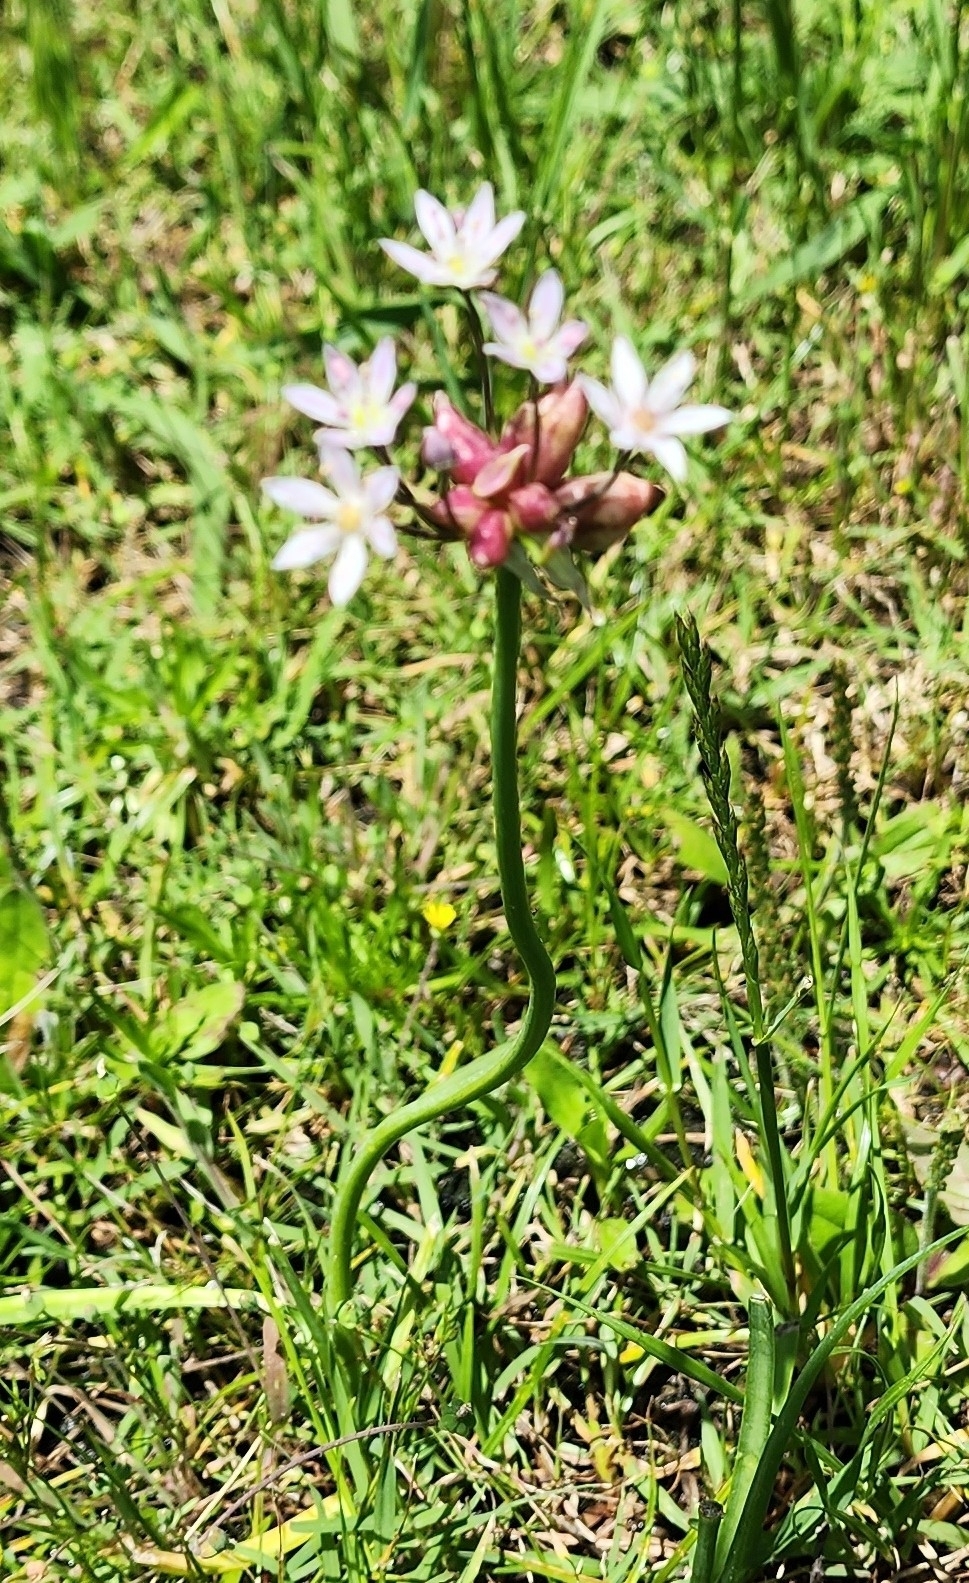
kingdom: Plantae
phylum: Tracheophyta
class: Liliopsida
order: Asparagales
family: Amaryllidaceae
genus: Allium
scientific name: Allium canadense
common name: Meadow garlic
